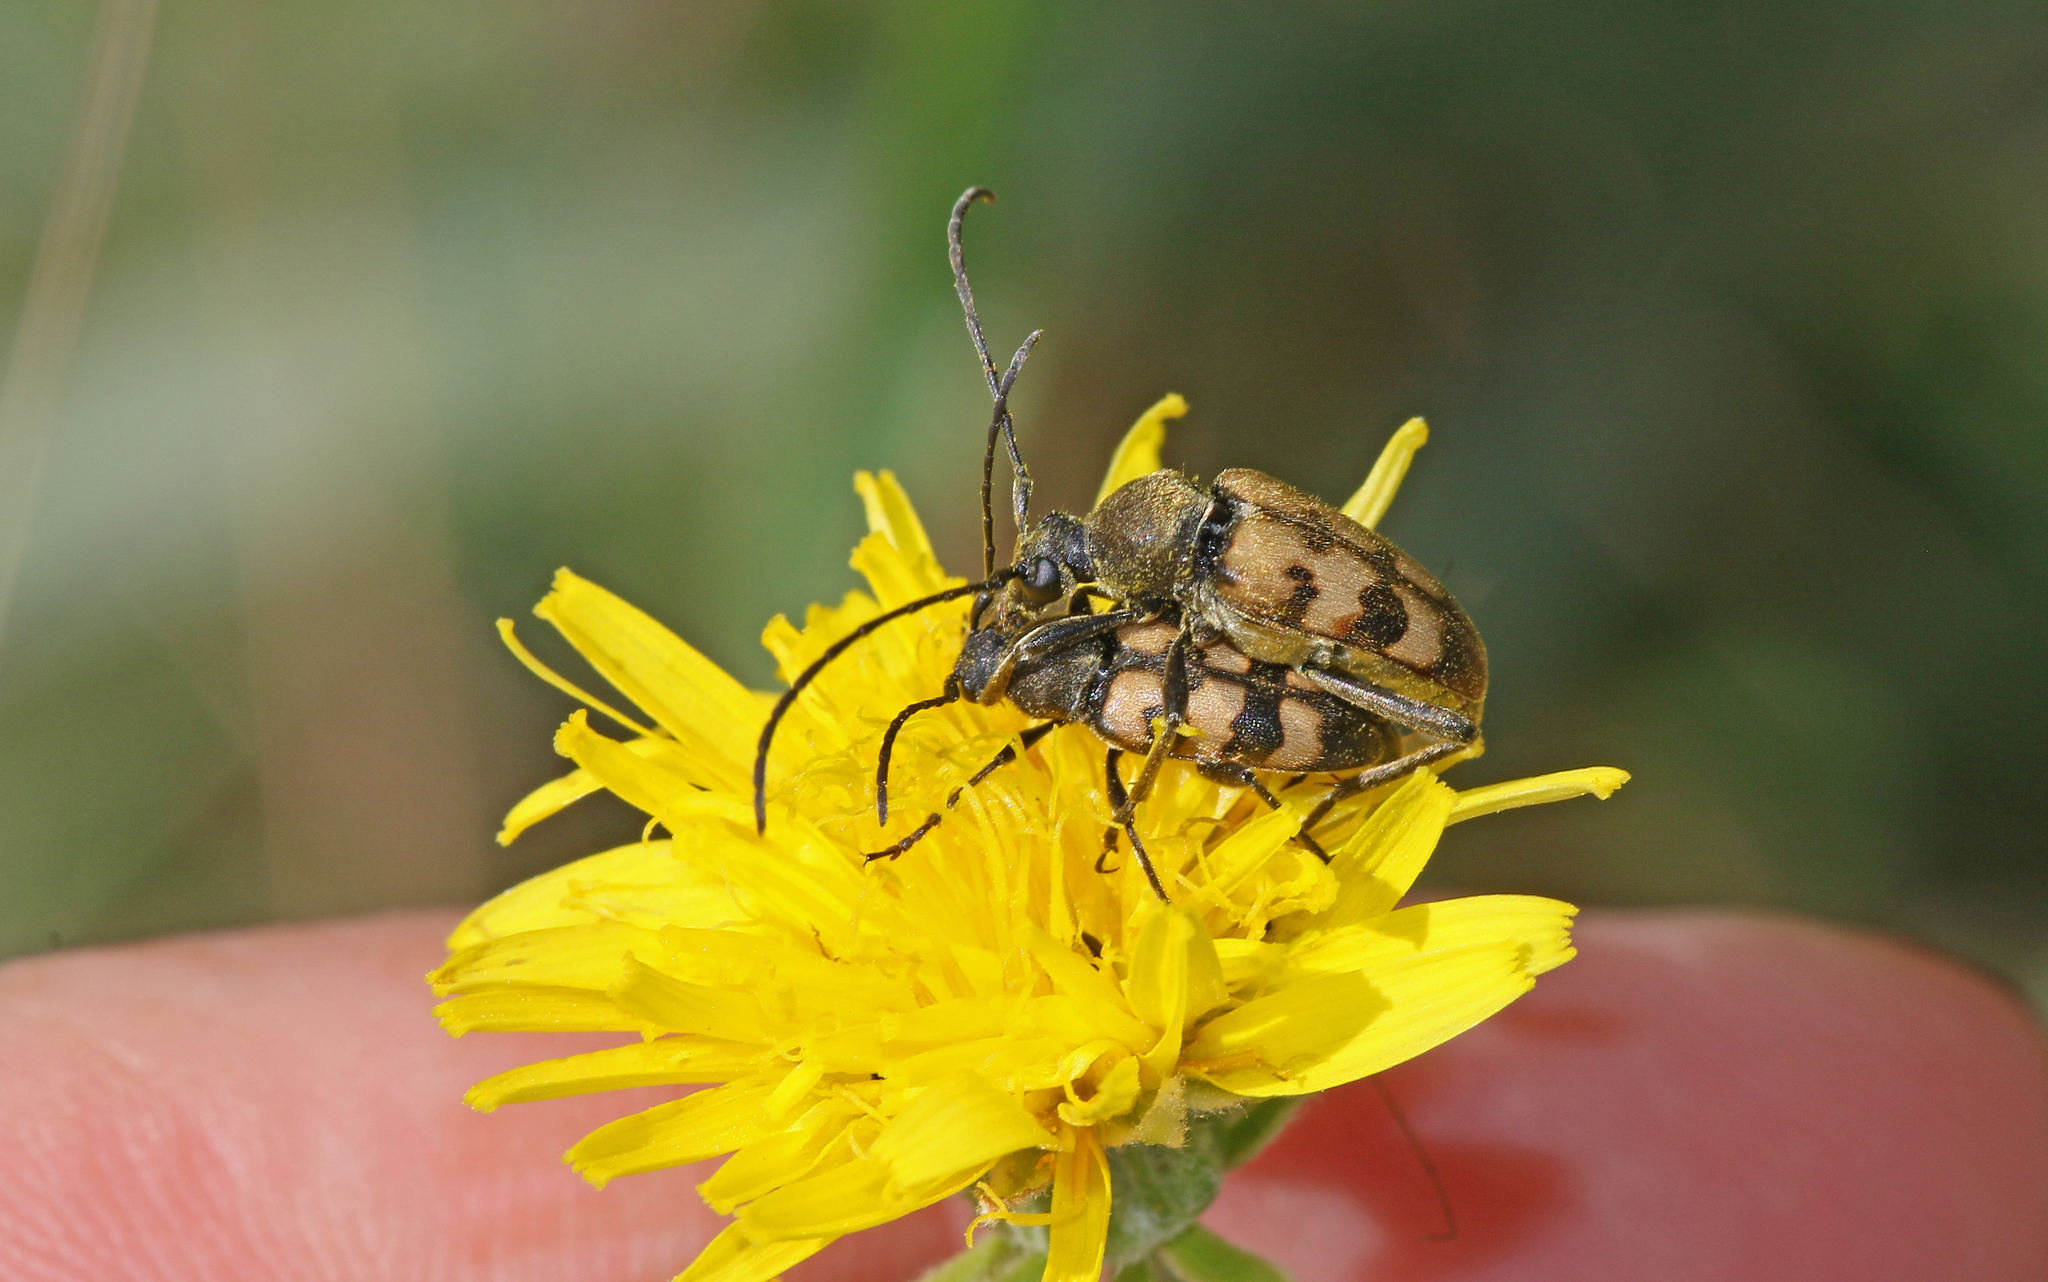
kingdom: Animalia
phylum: Arthropoda
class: Insecta
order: Coleoptera
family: Cerambycidae
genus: Pachytodes
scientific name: Pachytodes
